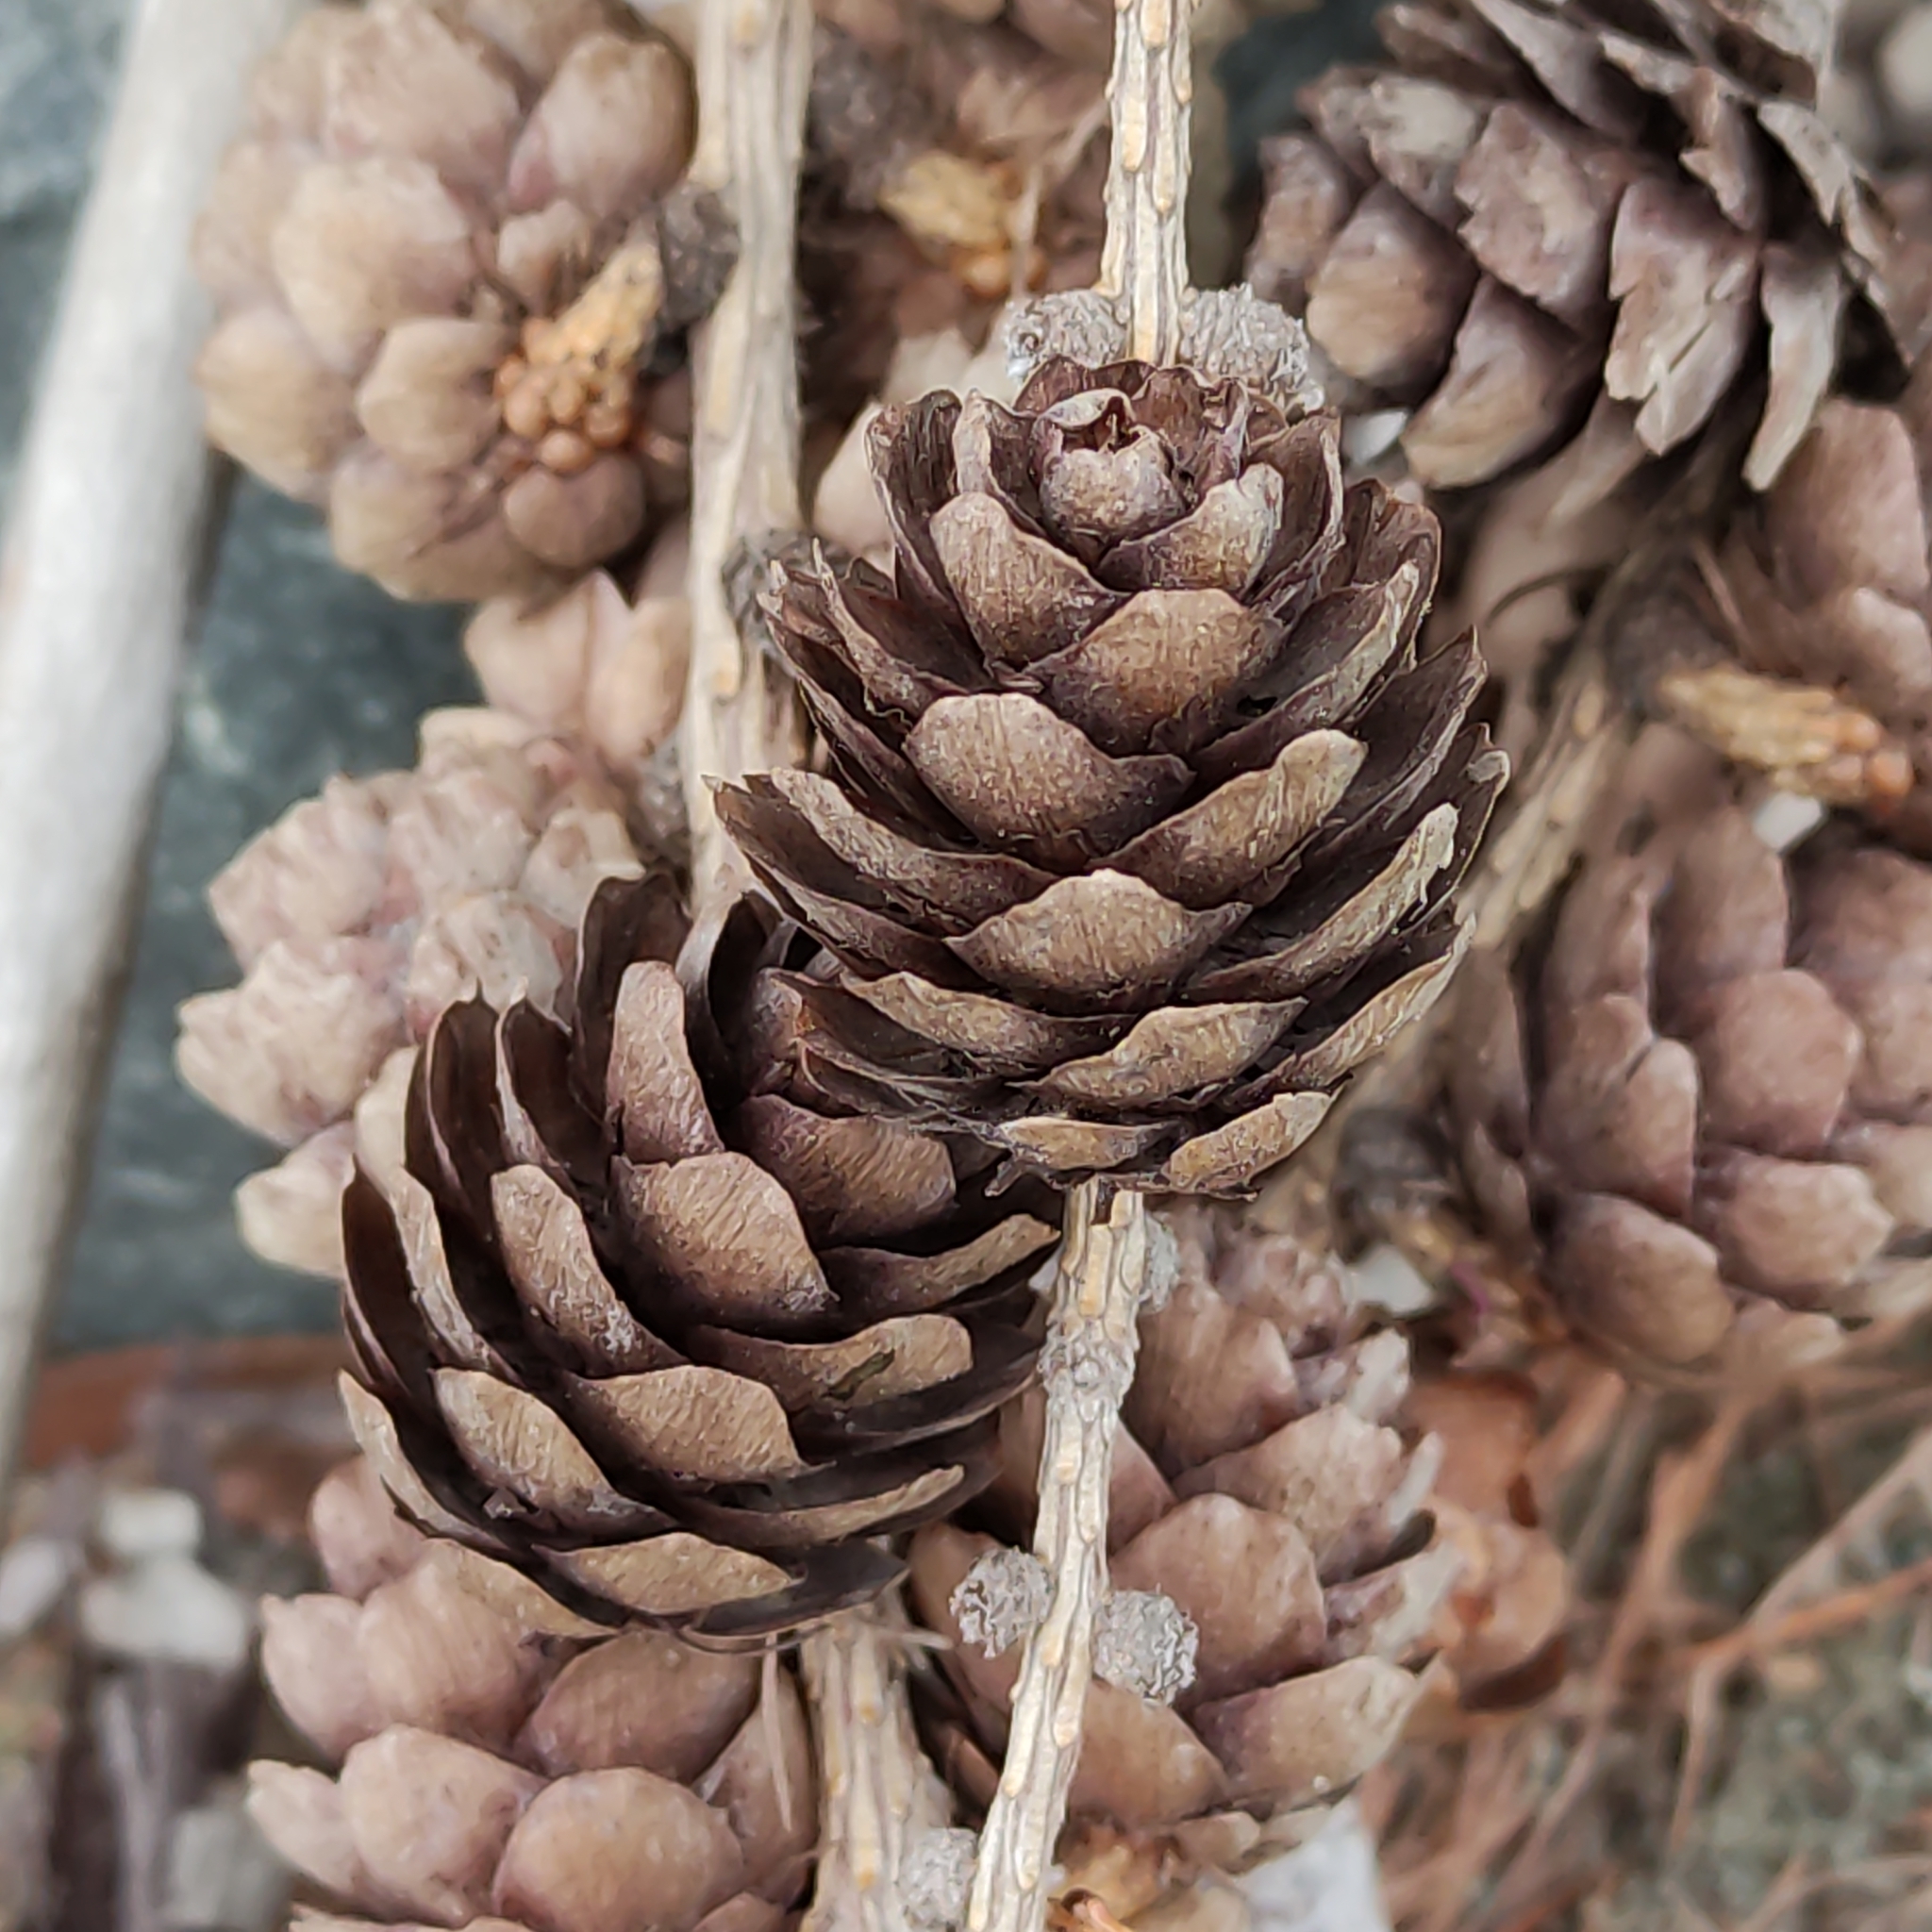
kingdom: Plantae
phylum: Tracheophyta
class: Pinopsida
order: Pinales
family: Pinaceae
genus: Larix
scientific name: Larix decidua
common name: European larch
